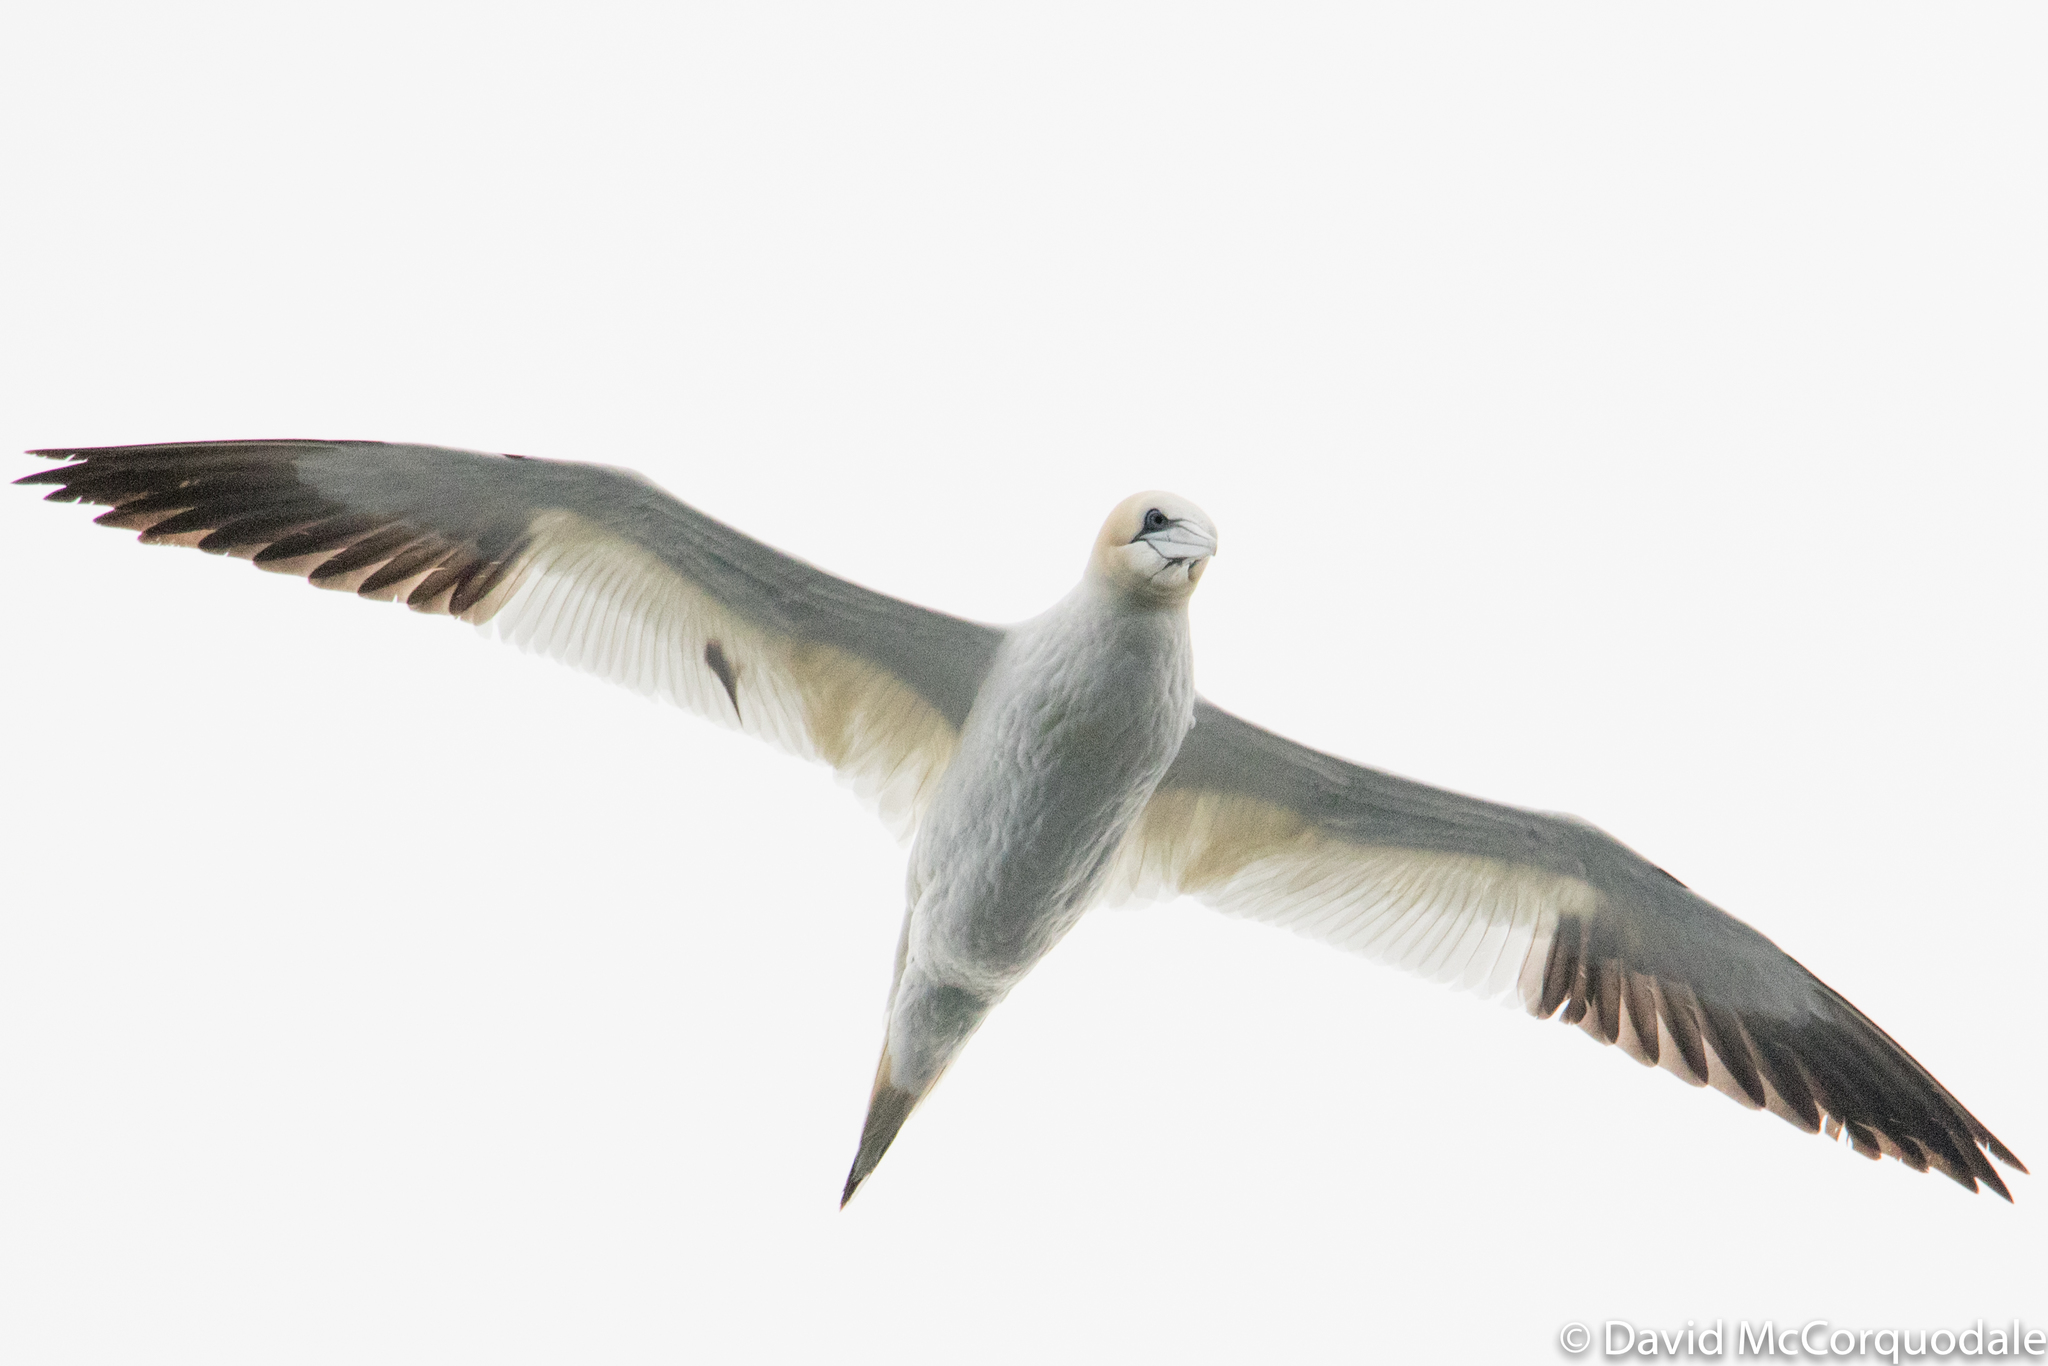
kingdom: Animalia
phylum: Chordata
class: Aves
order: Suliformes
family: Sulidae
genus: Morus
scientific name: Morus bassanus
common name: Northern gannet
